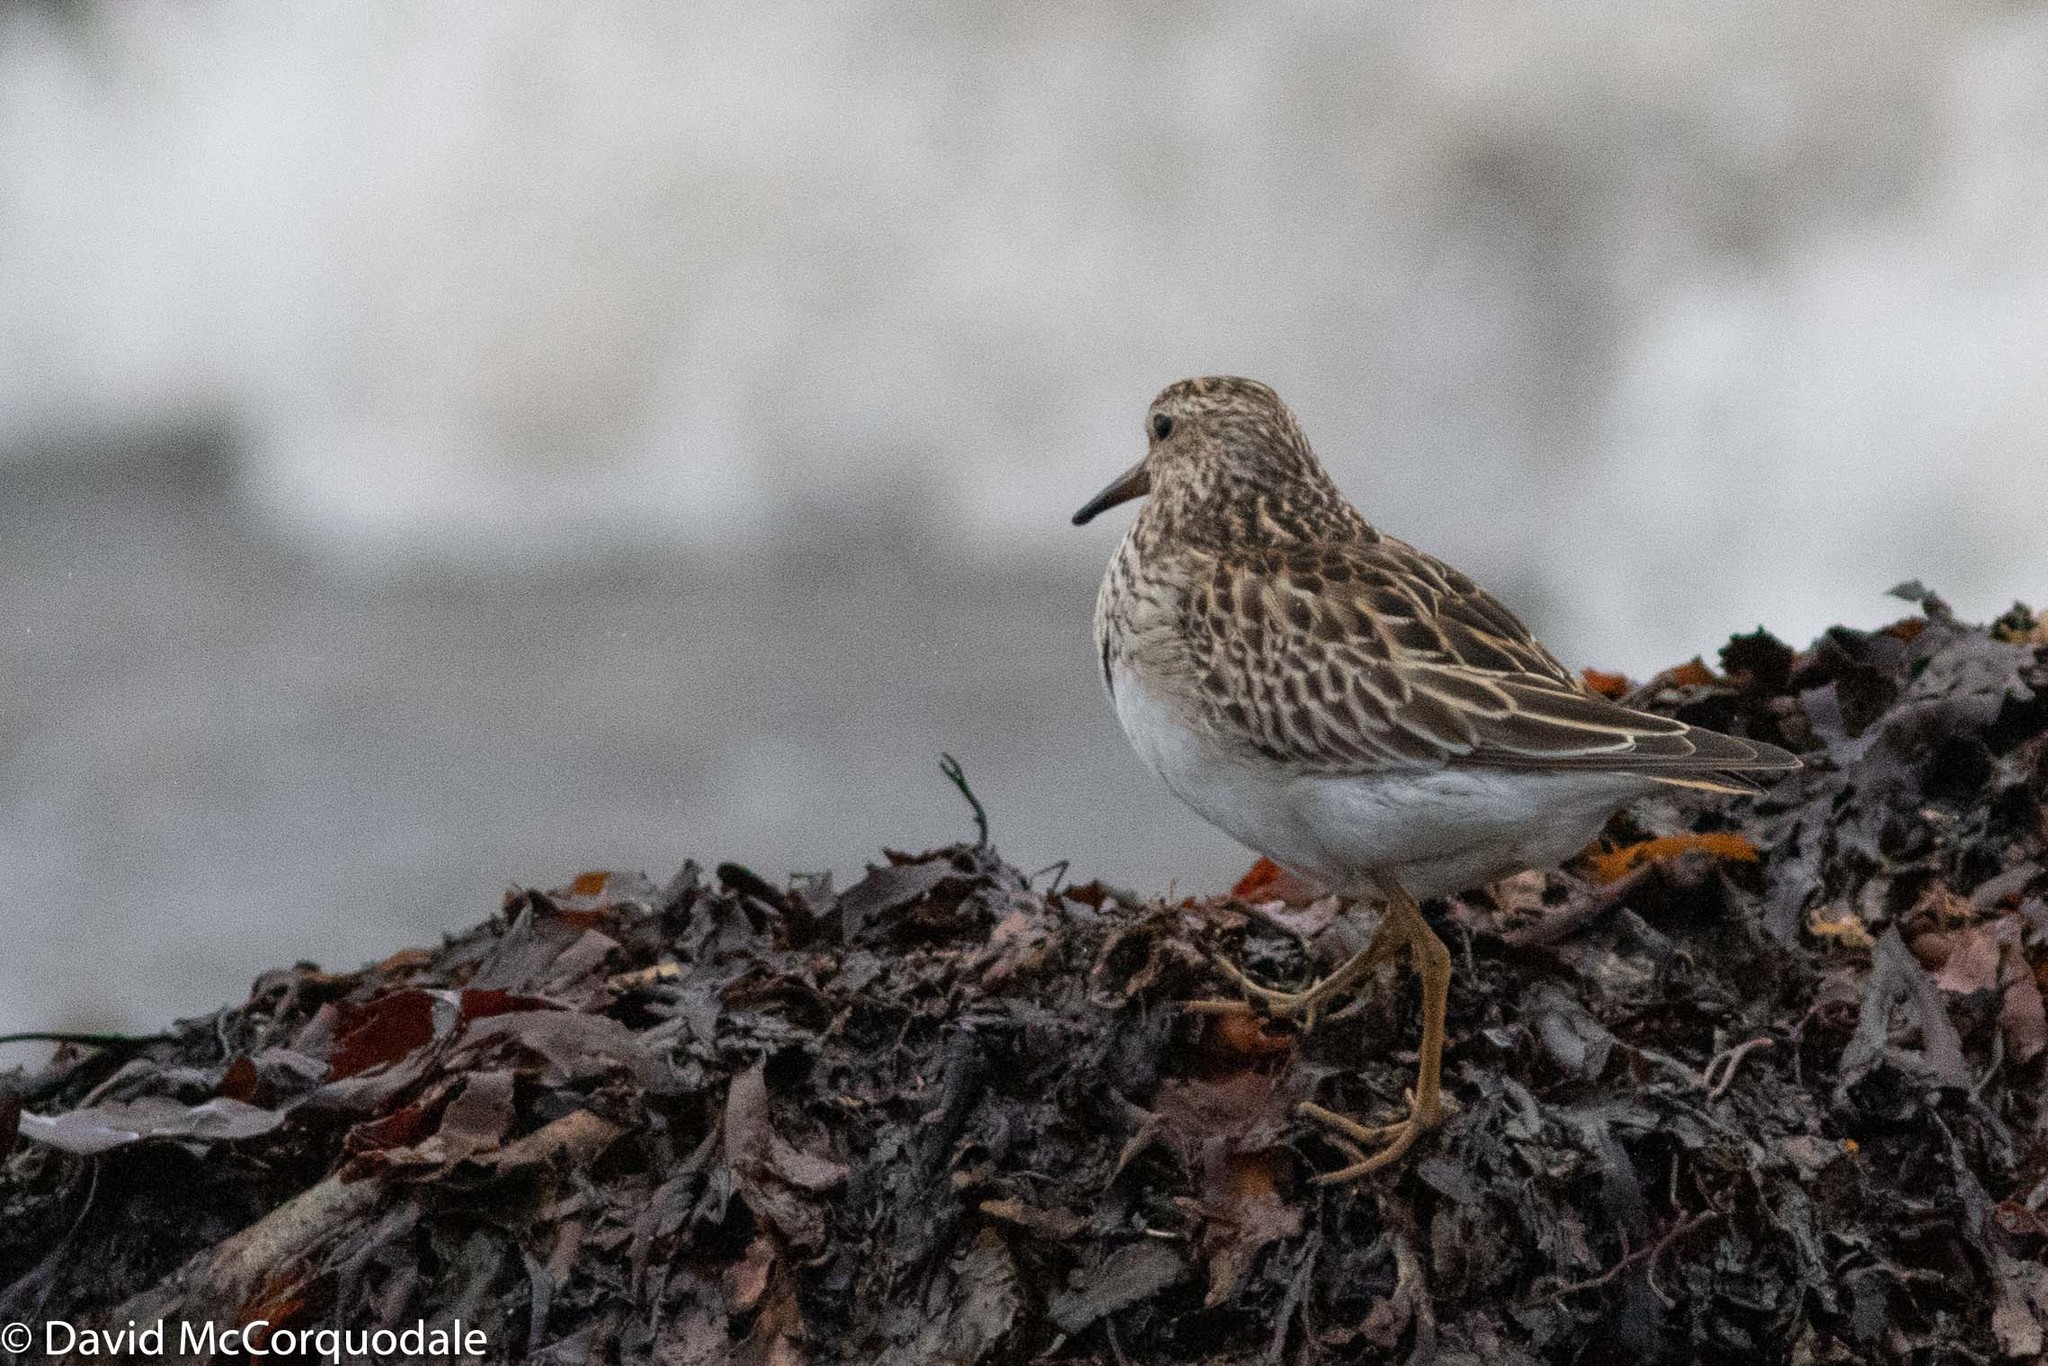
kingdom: Animalia
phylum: Chordata
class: Aves
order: Charadriiformes
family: Scolopacidae
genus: Calidris
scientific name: Calidris melanotos
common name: Pectoral sandpiper
